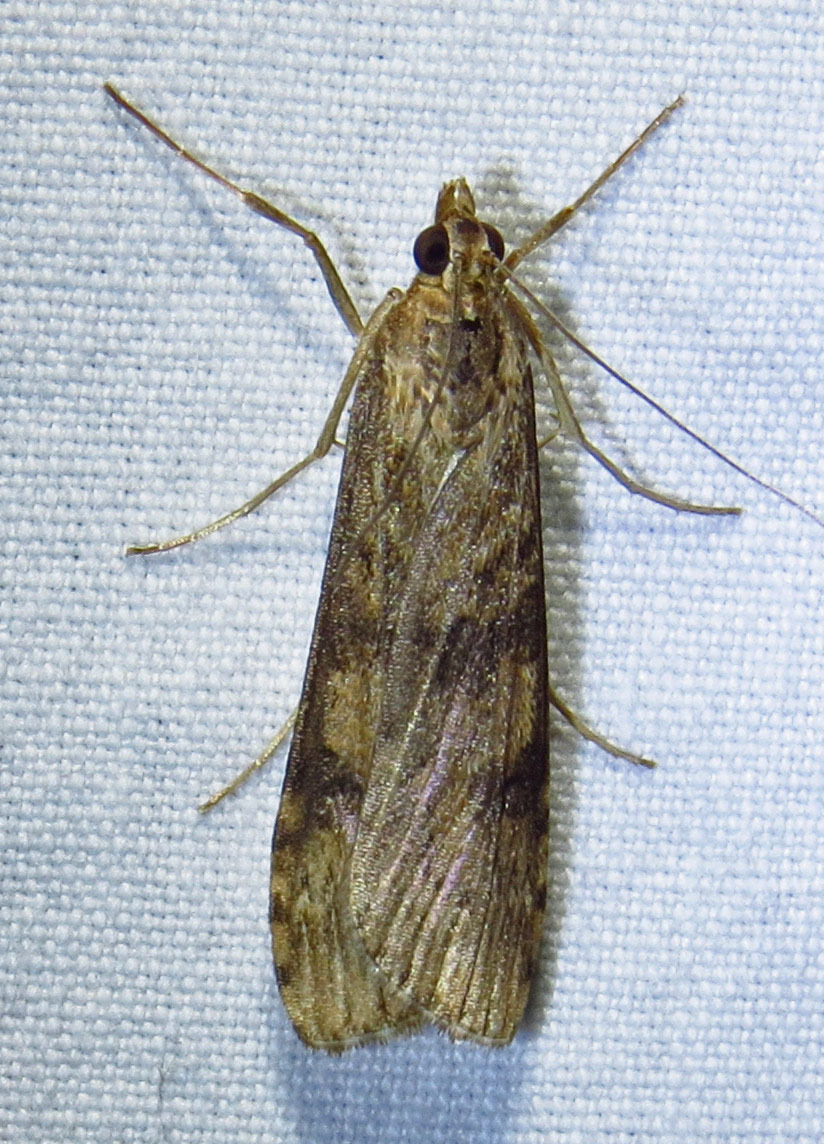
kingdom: Animalia
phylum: Arthropoda
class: Insecta
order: Lepidoptera
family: Crambidae
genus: Nomophila
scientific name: Nomophila nearctica
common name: American rush veneer
